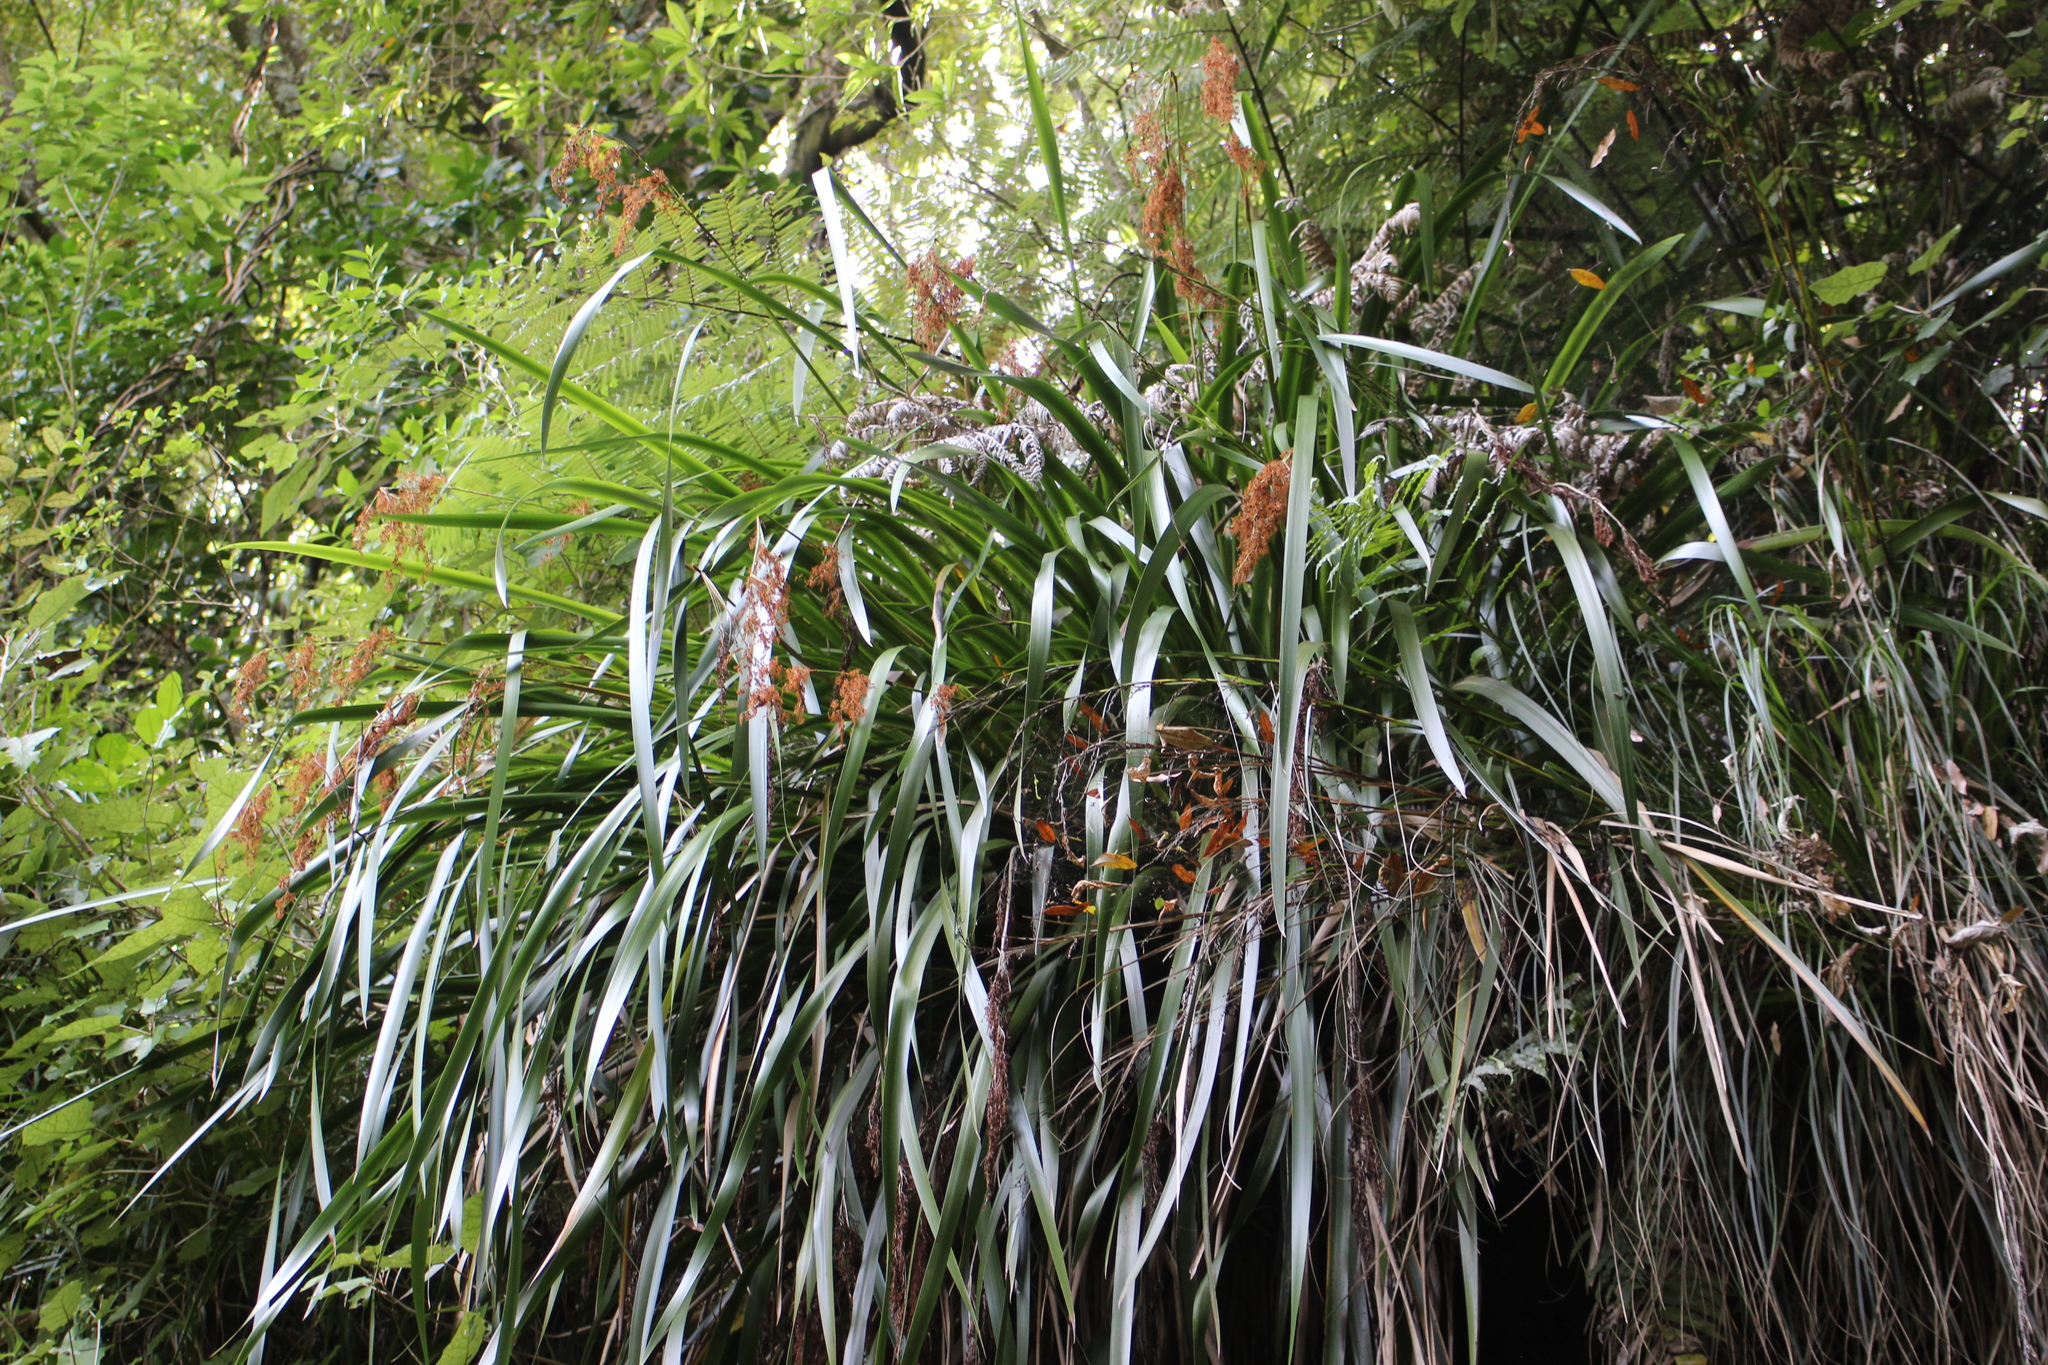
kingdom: Plantae
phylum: Tracheophyta
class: Liliopsida
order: Poales
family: Cyperaceae
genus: Machaerina
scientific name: Machaerina sinclairii
